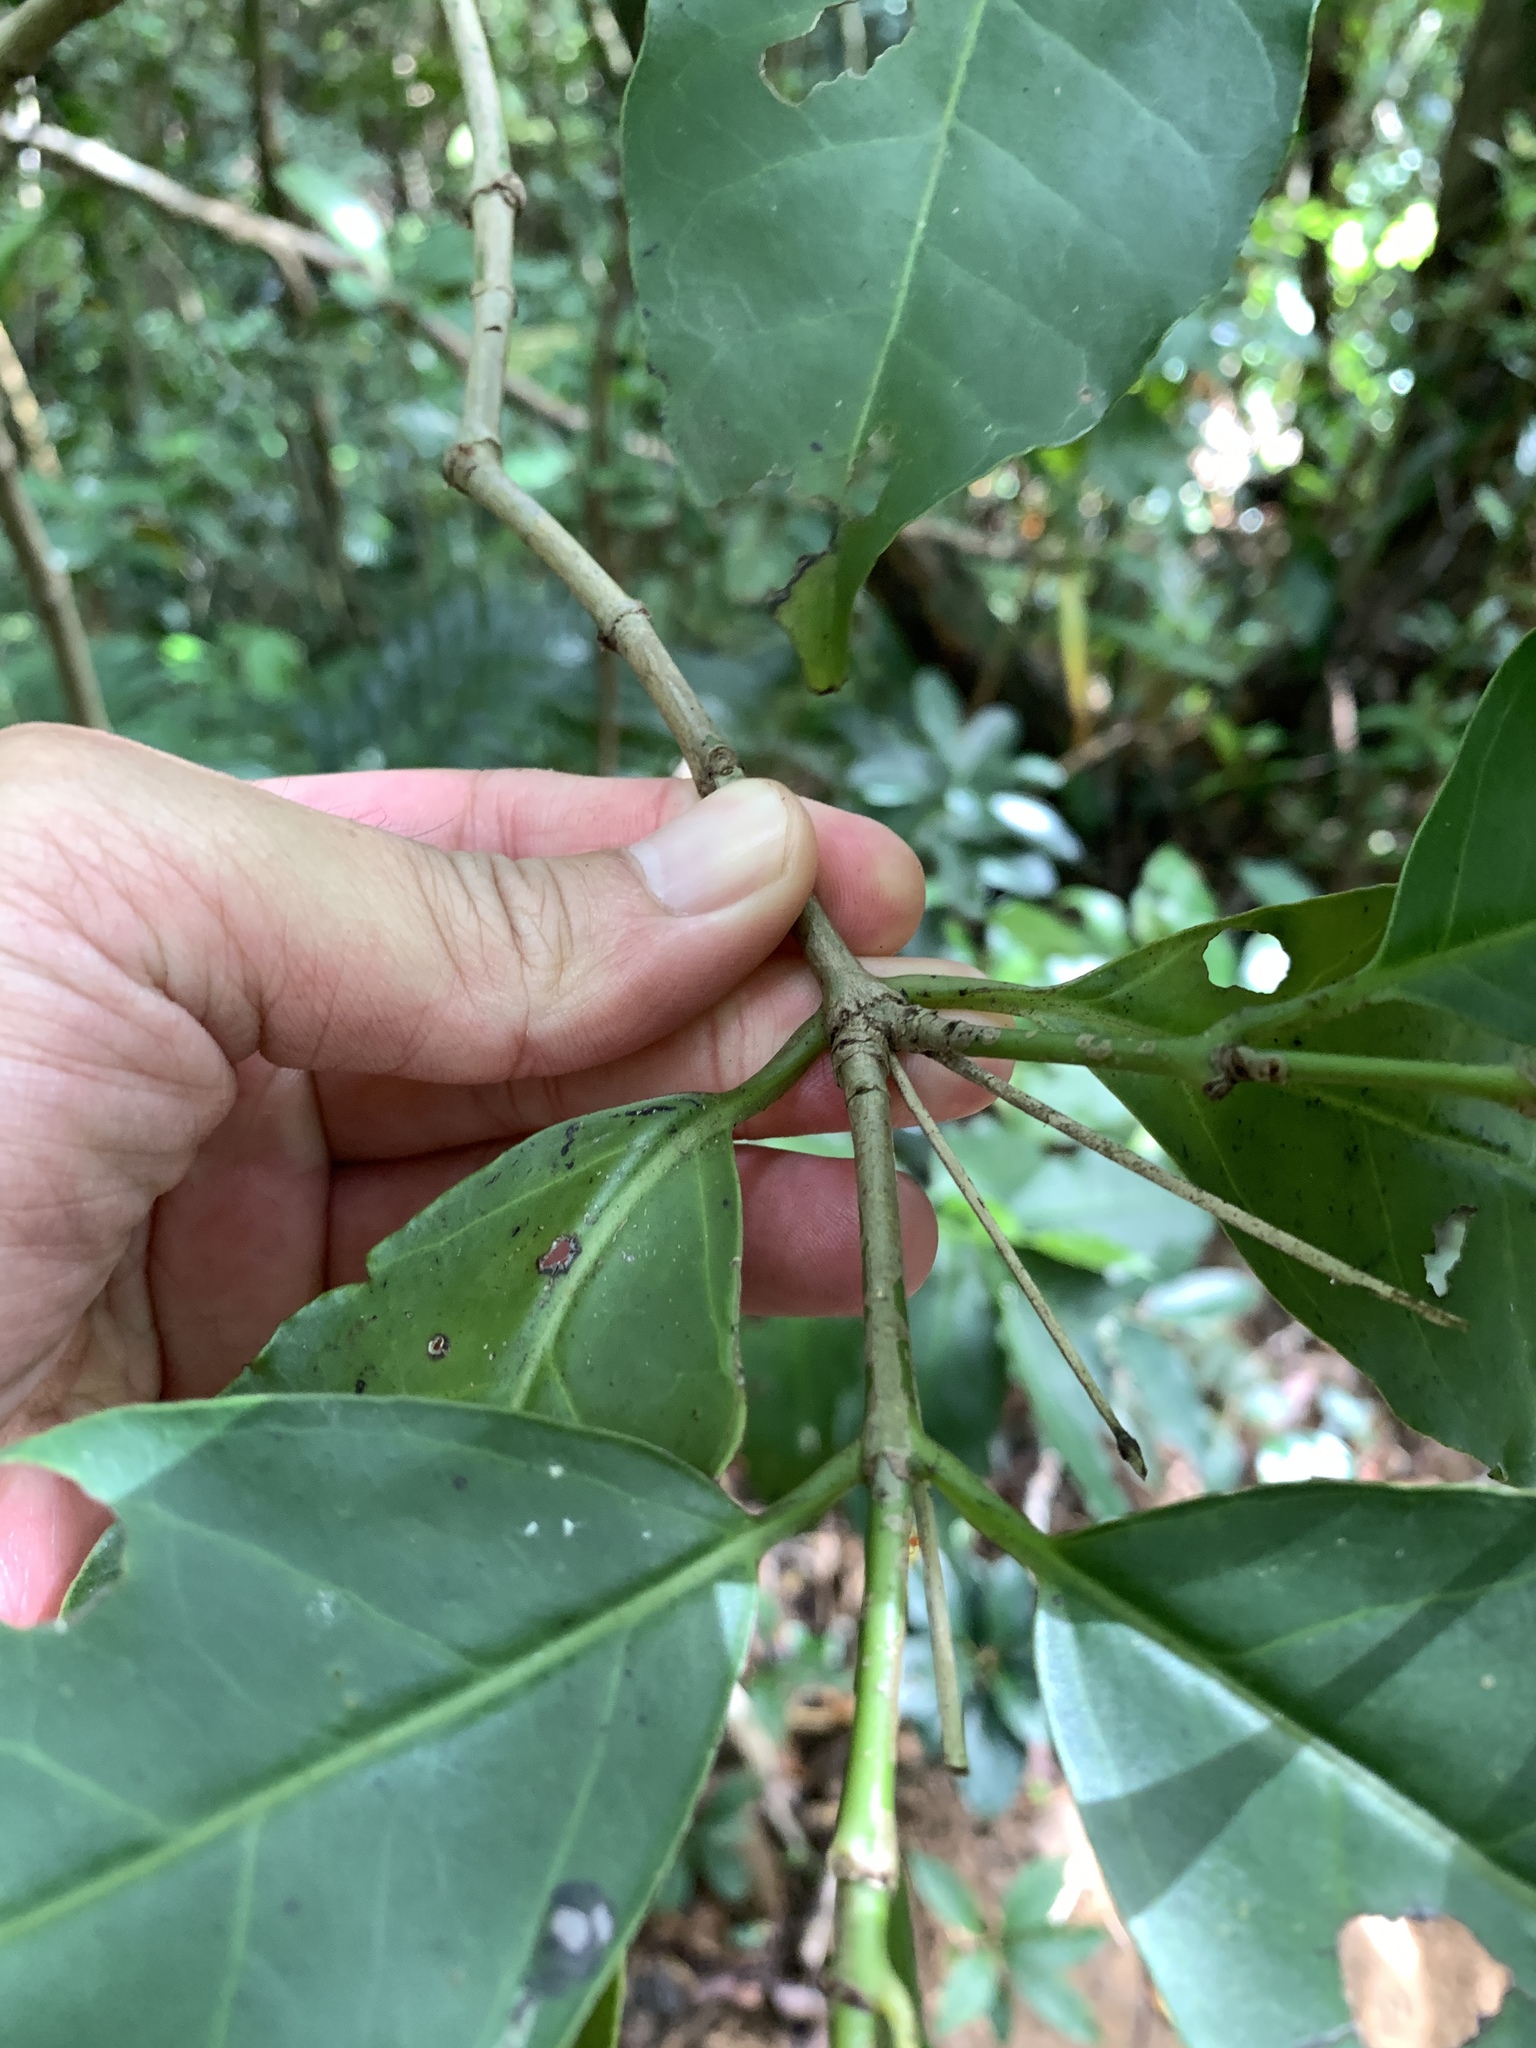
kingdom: Plantae
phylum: Tracheophyta
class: Magnoliopsida
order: Gentianales
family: Loganiaceae
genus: Geniostoma
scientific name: Geniostoma rupestre
